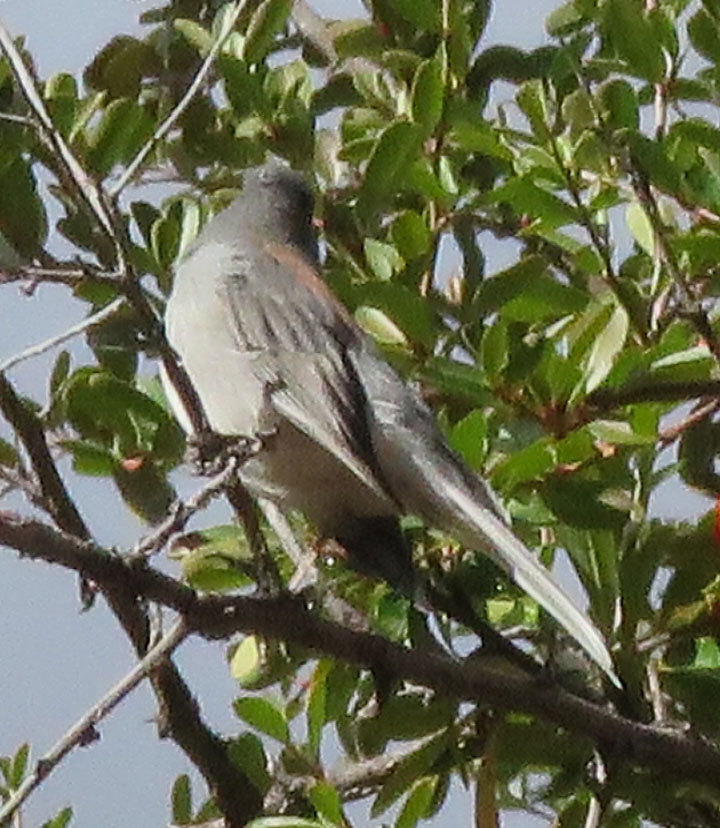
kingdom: Animalia
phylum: Chordata
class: Aves
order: Passeriformes
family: Passerellidae
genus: Junco
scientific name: Junco hyemalis
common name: Dark-eyed junco
